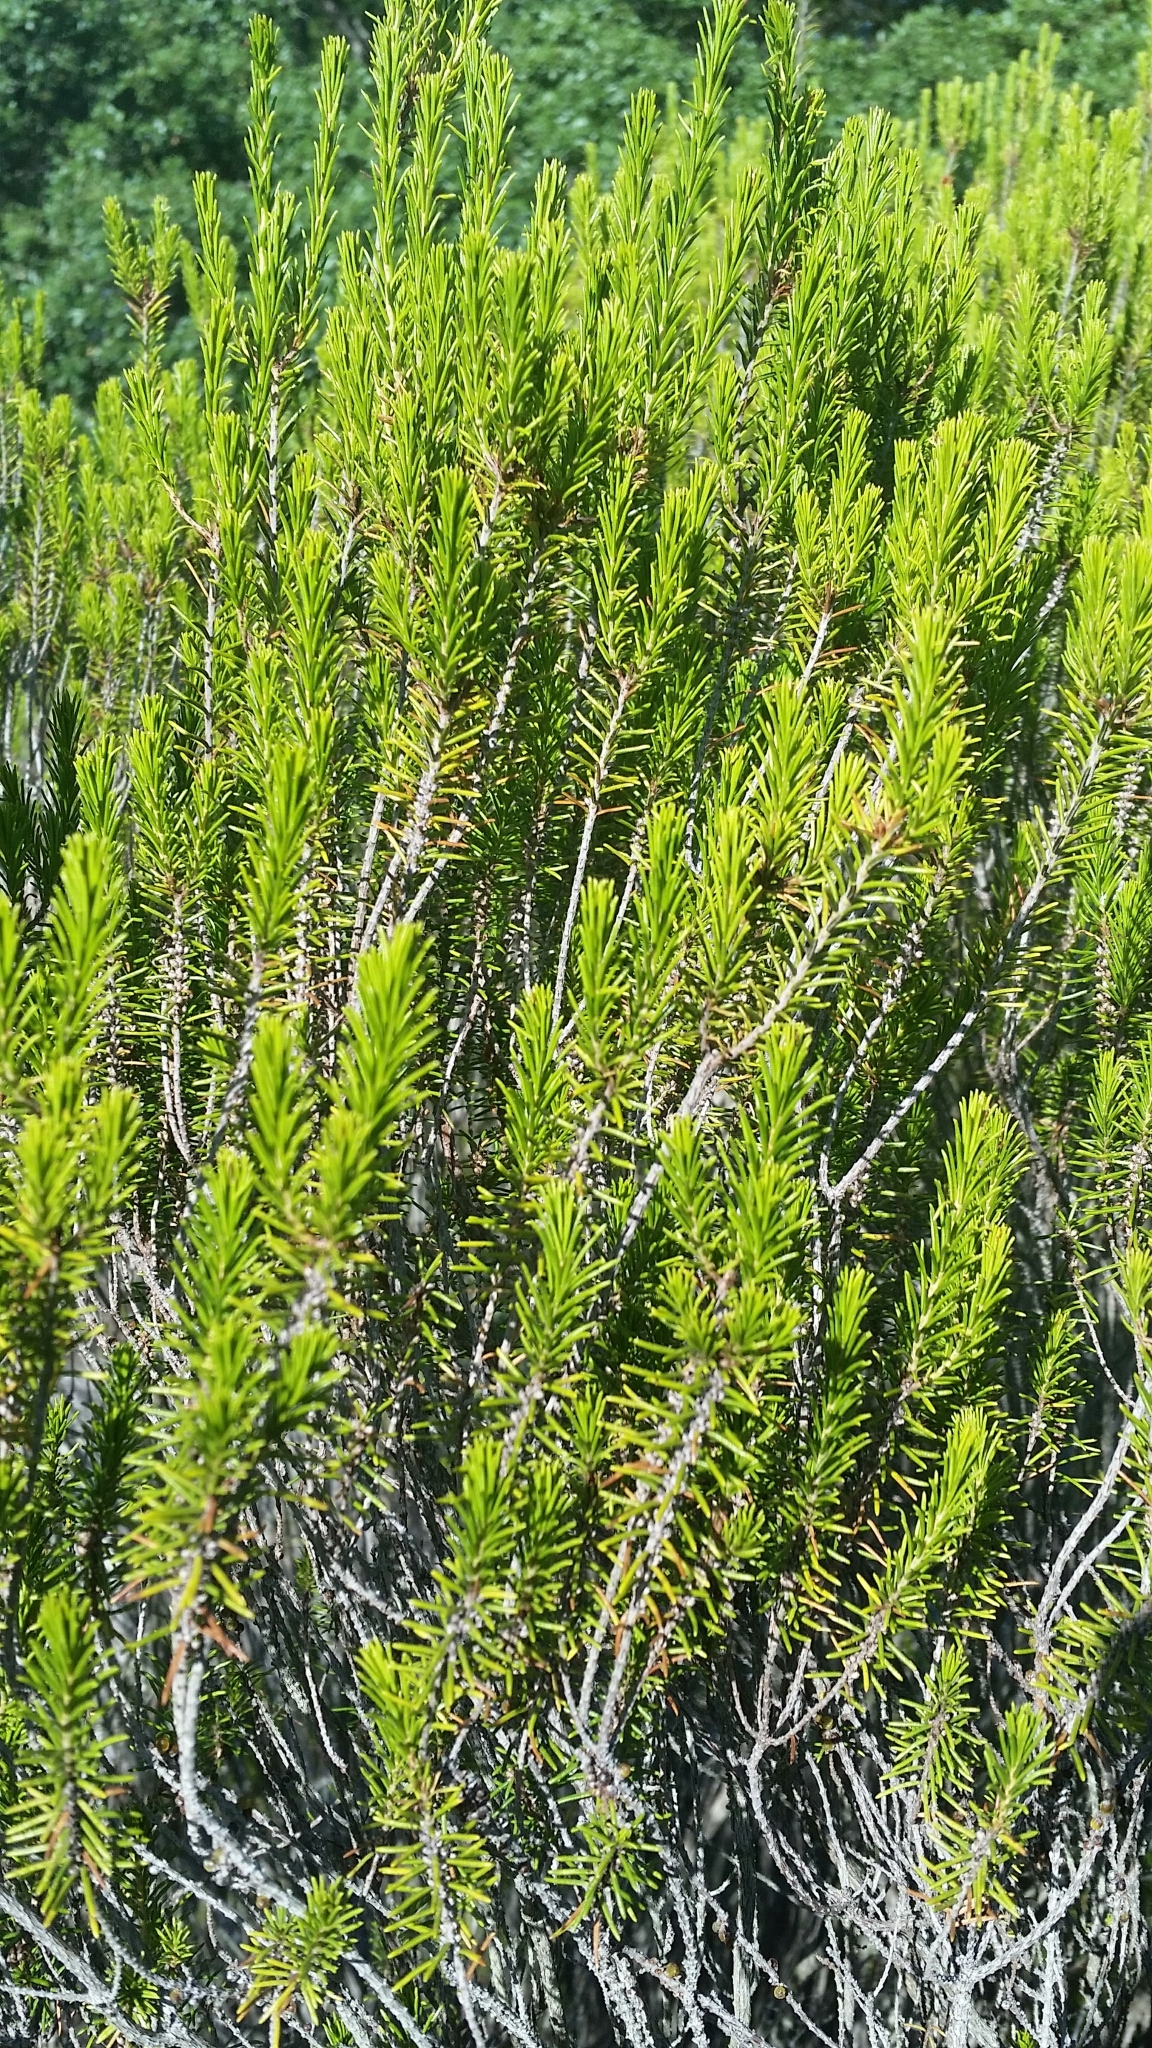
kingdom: Plantae
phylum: Tracheophyta
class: Magnoliopsida
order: Ericales
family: Ericaceae
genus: Ceratiola
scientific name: Ceratiola ericoides
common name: Sandhill-rosemary
